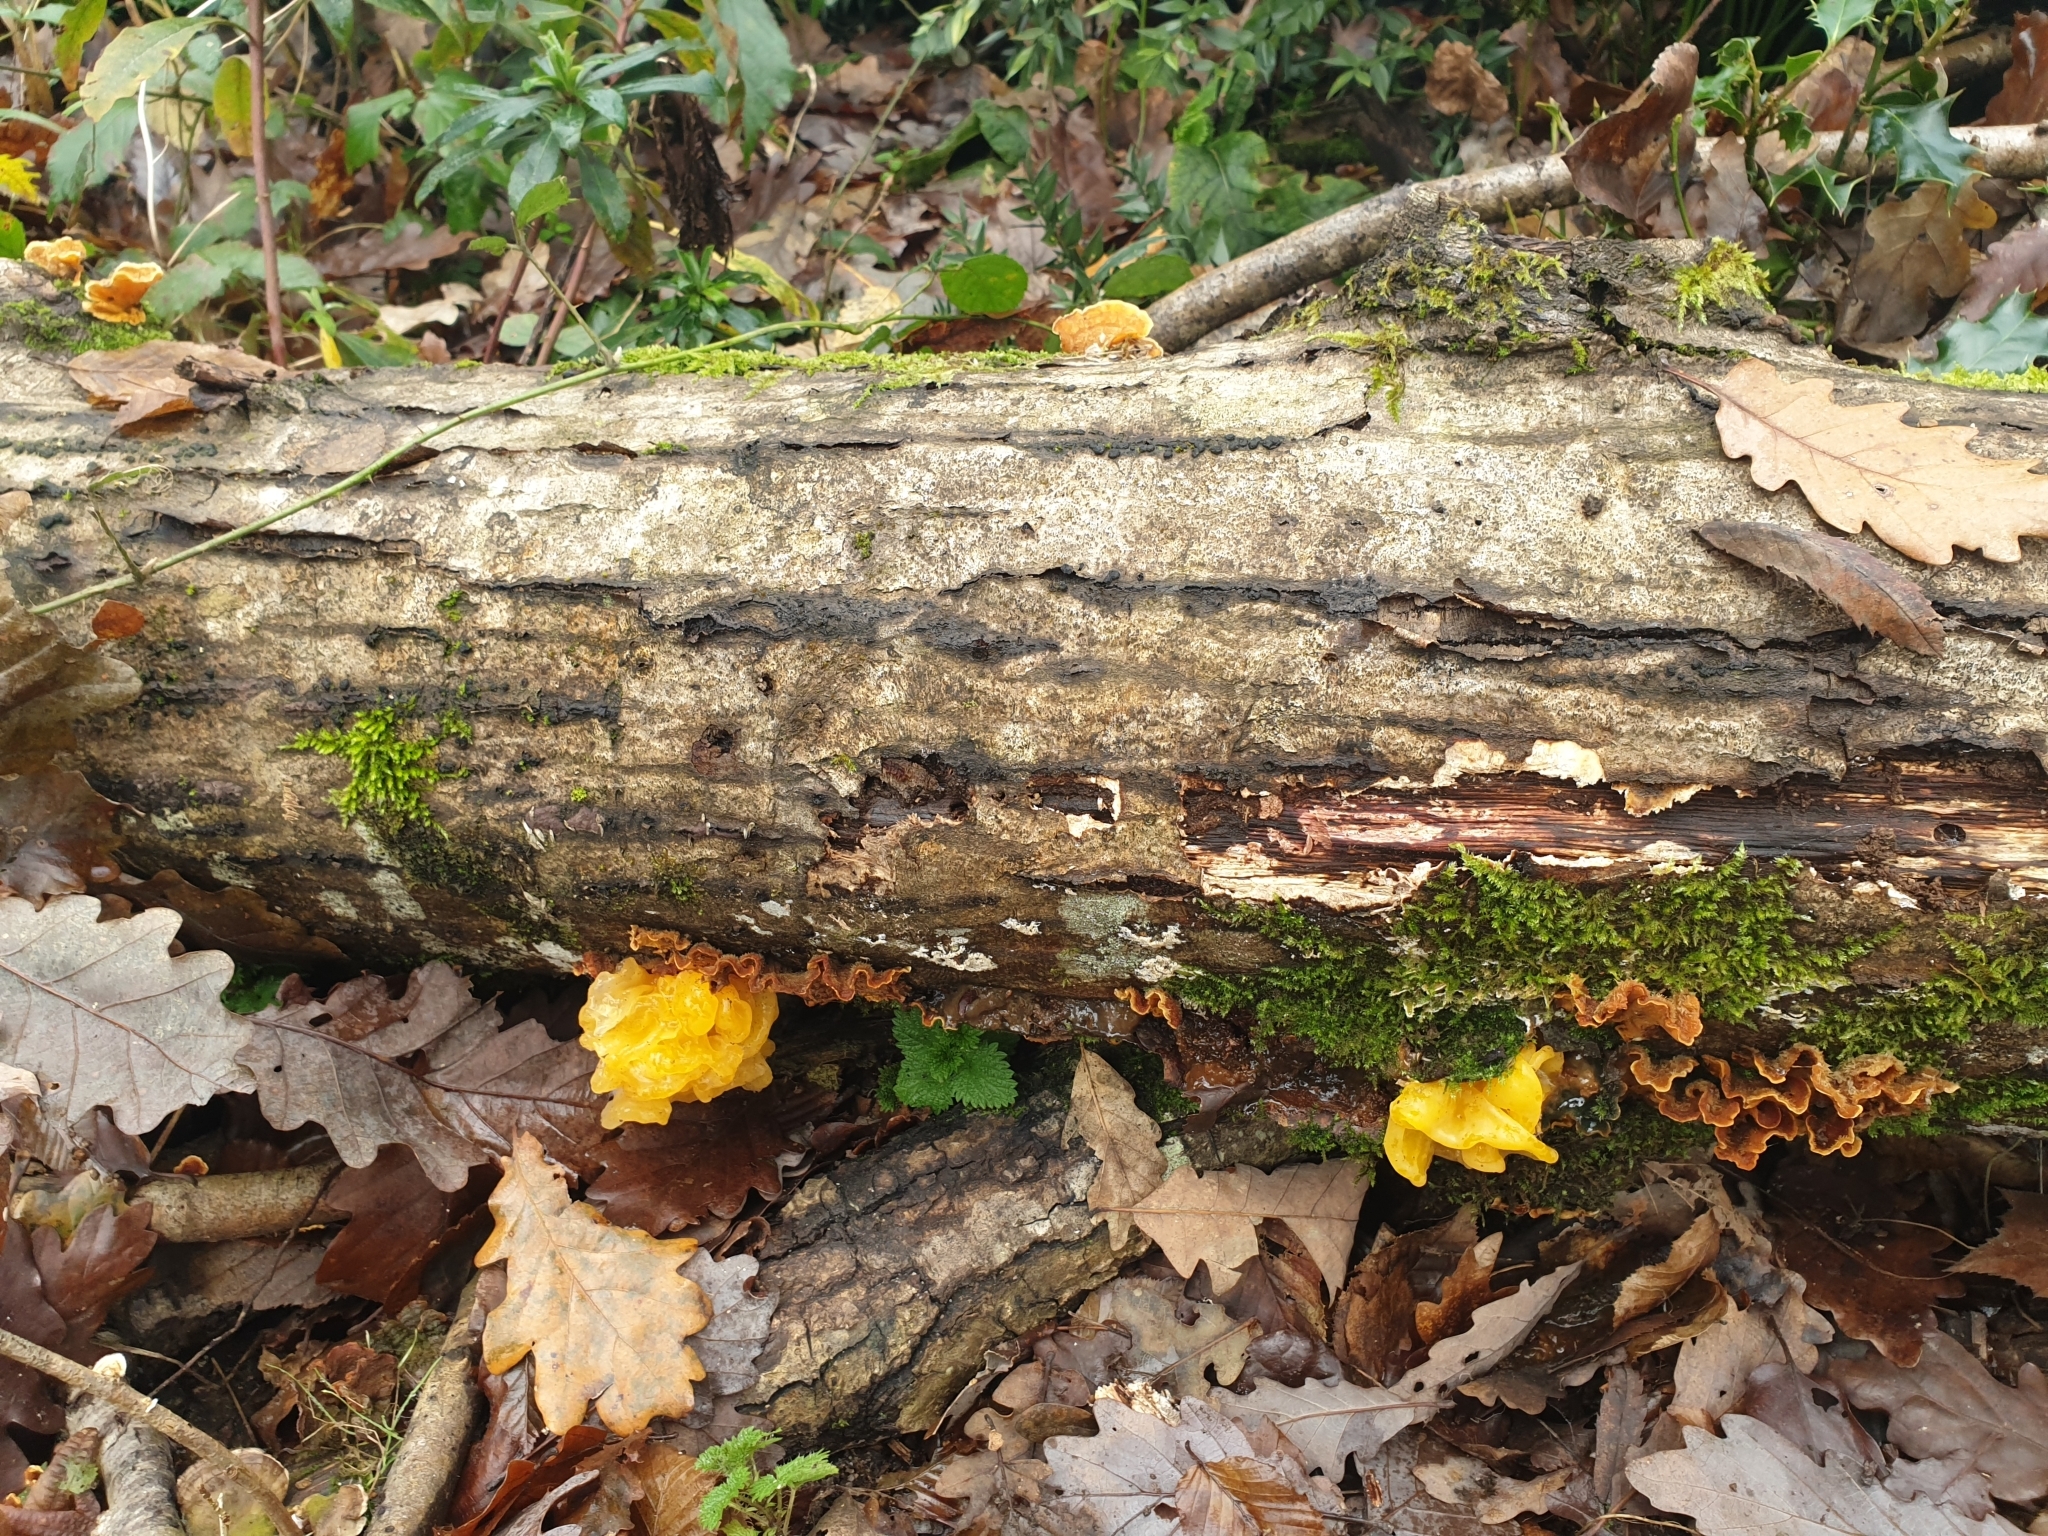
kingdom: Fungi
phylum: Basidiomycota
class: Tremellomycetes
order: Tremellales
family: Naemateliaceae
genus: Naematelia
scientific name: Naematelia aurantia
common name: Golden ear
